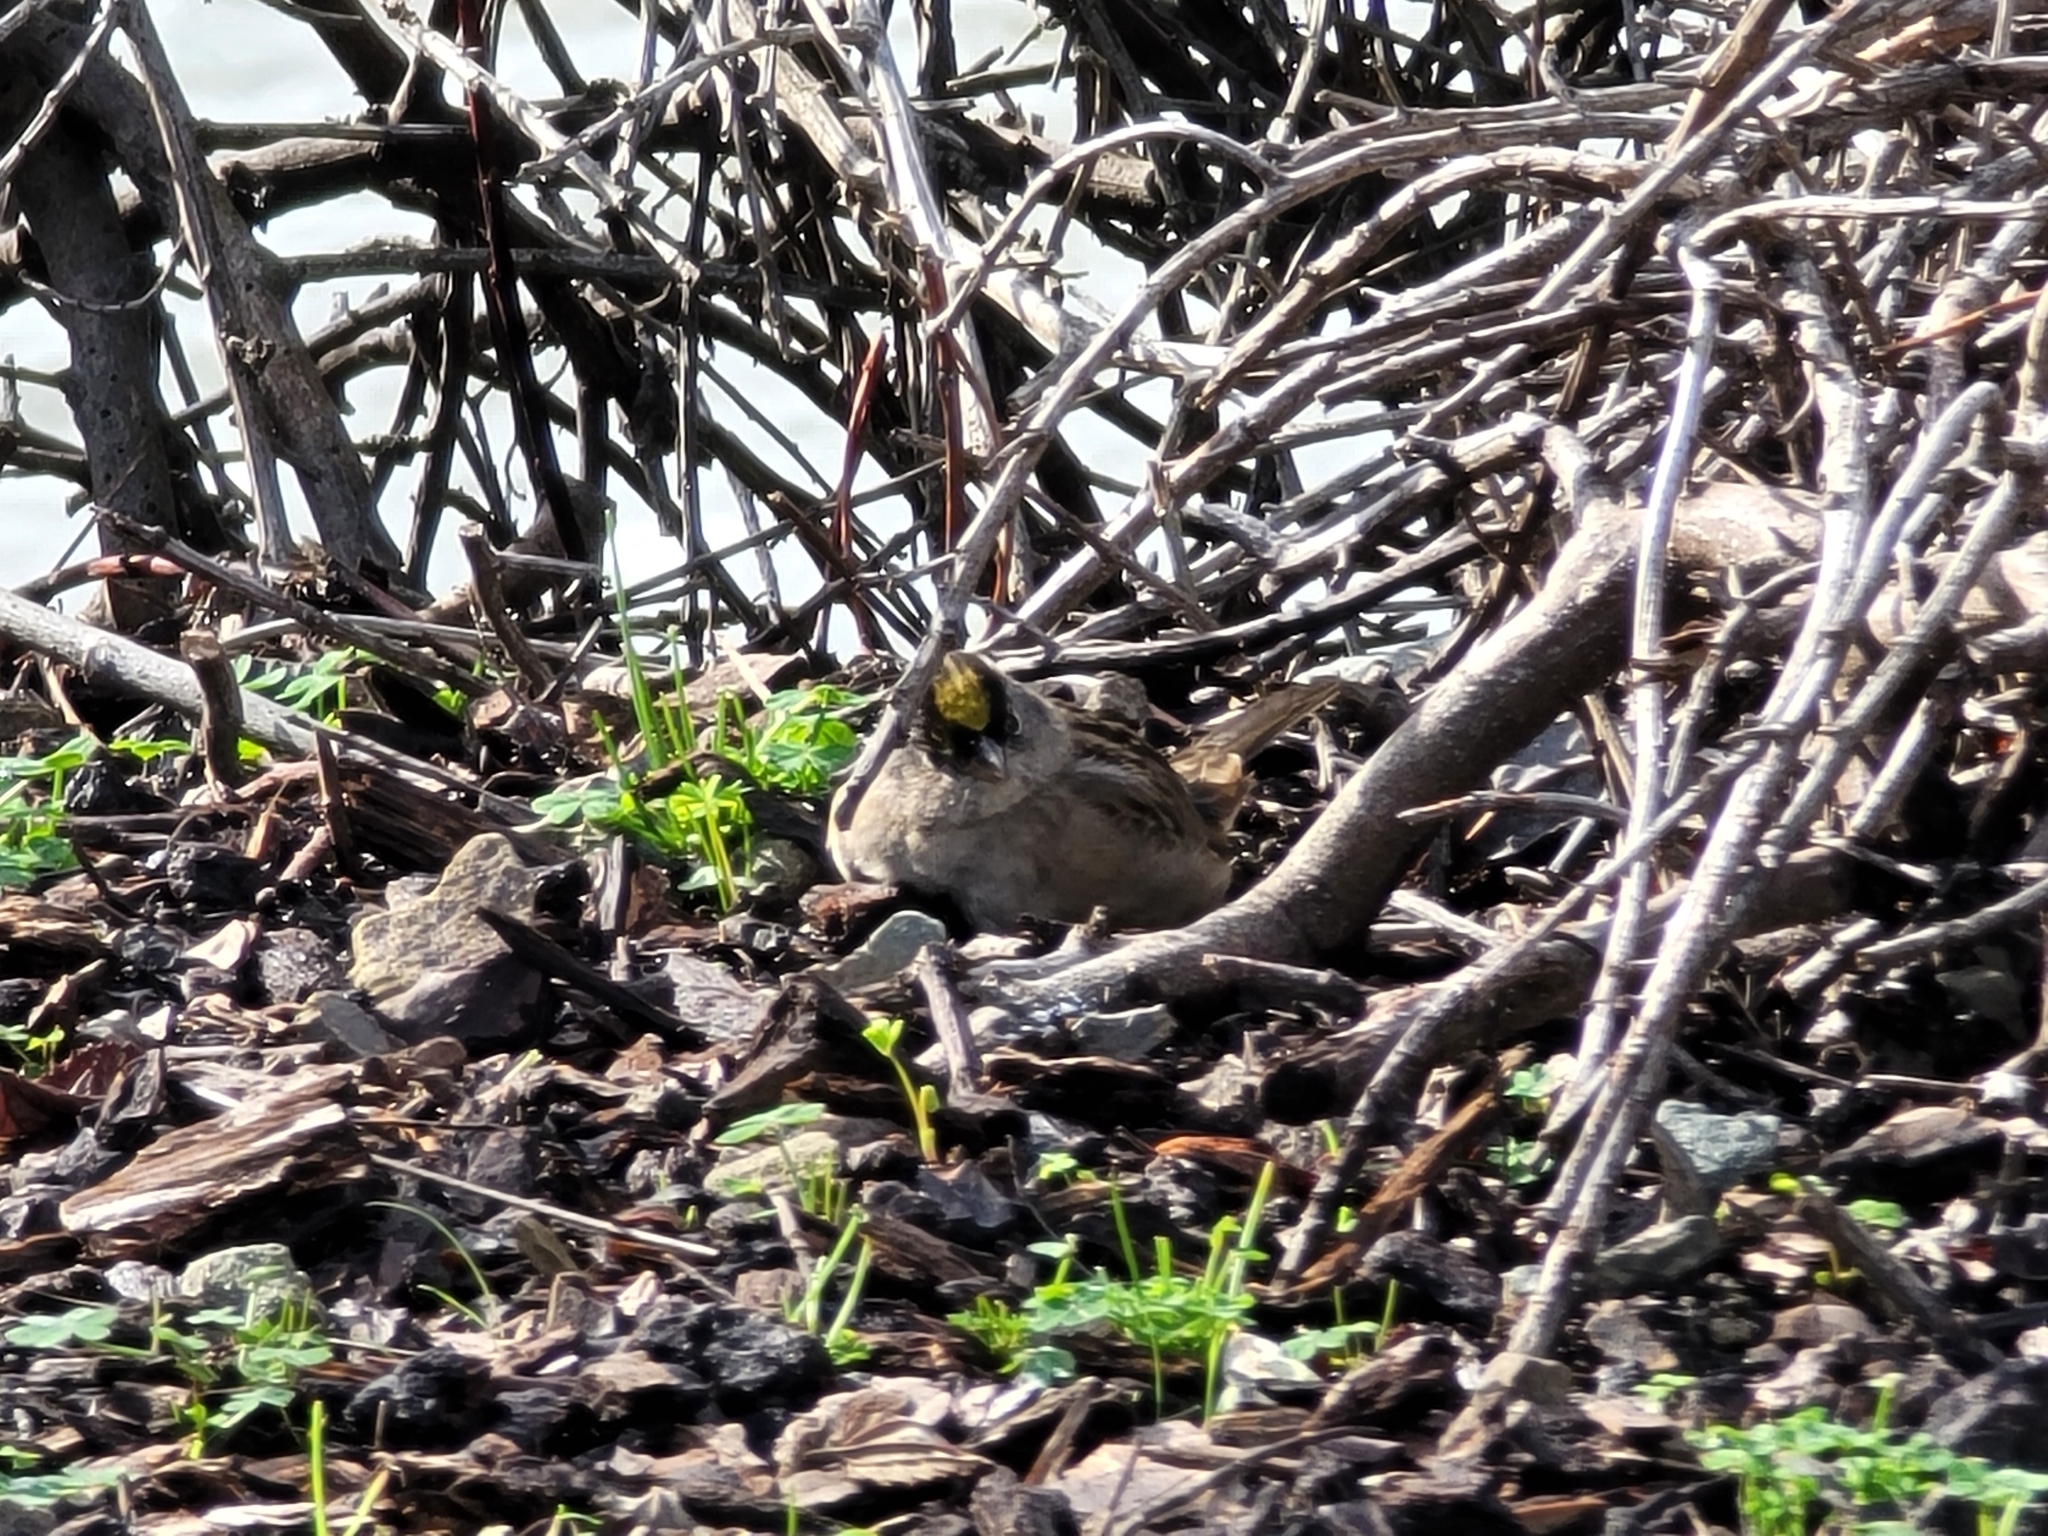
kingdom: Animalia
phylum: Chordata
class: Aves
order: Passeriformes
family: Passerellidae
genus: Zonotrichia
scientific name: Zonotrichia atricapilla
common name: Golden-crowned sparrow
